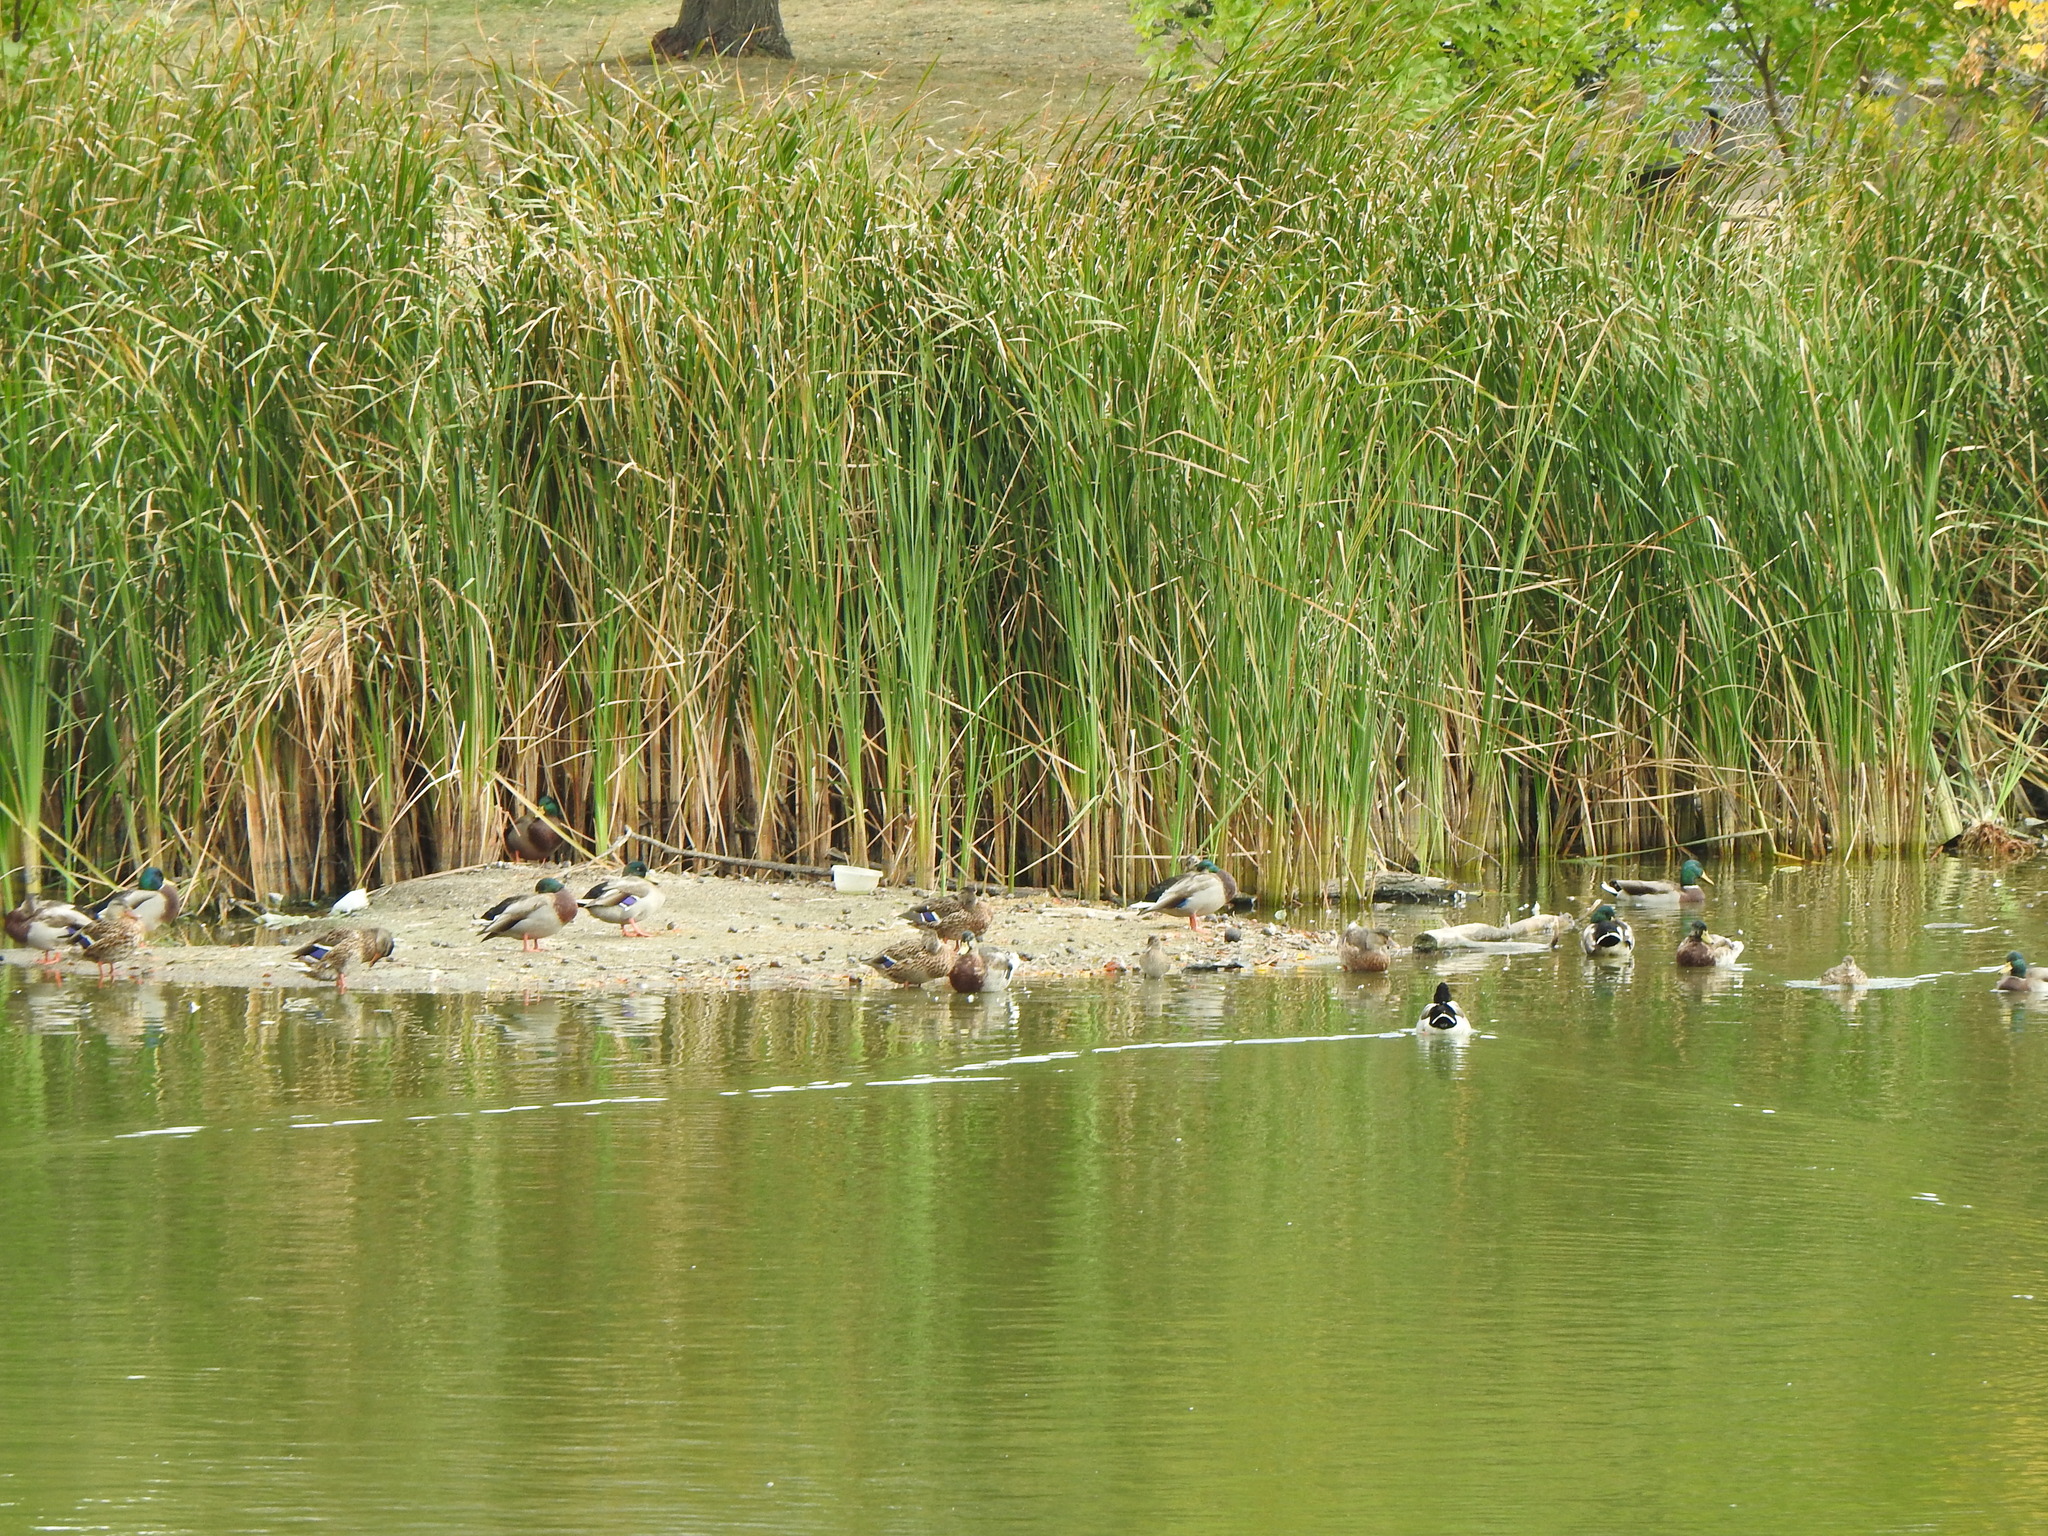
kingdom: Animalia
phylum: Chordata
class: Aves
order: Anseriformes
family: Anatidae
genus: Anas
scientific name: Anas platyrhynchos
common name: Mallard
